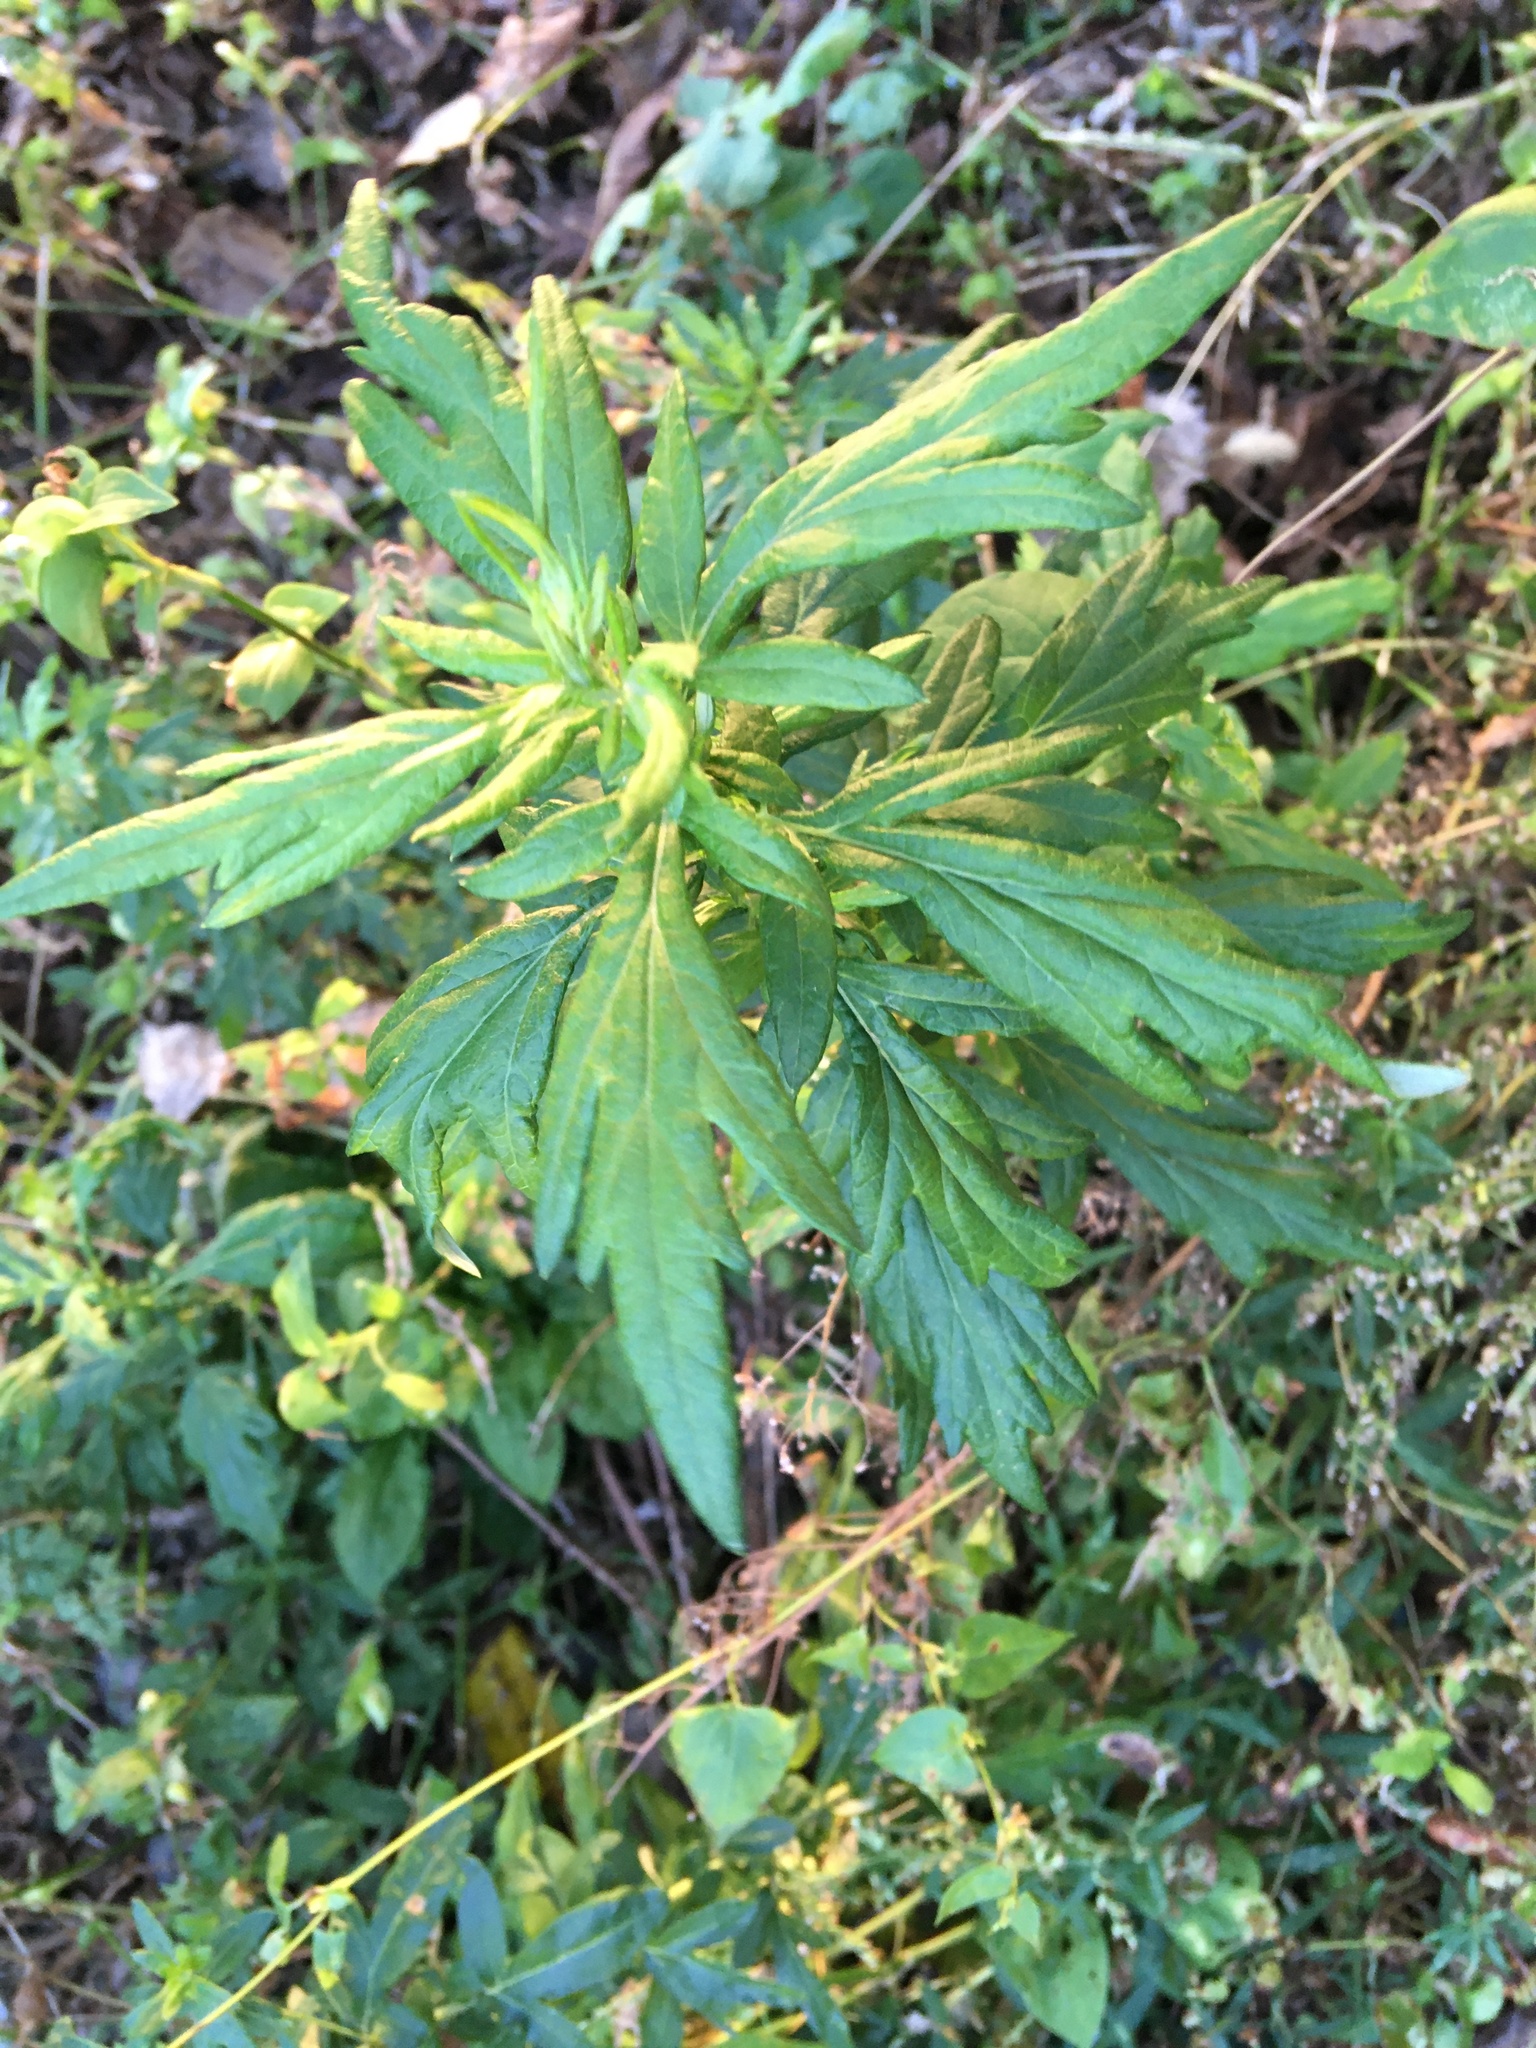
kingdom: Plantae
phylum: Tracheophyta
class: Magnoliopsida
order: Asterales
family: Asteraceae
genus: Artemisia
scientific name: Artemisia vulgaris
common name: Mugwort
